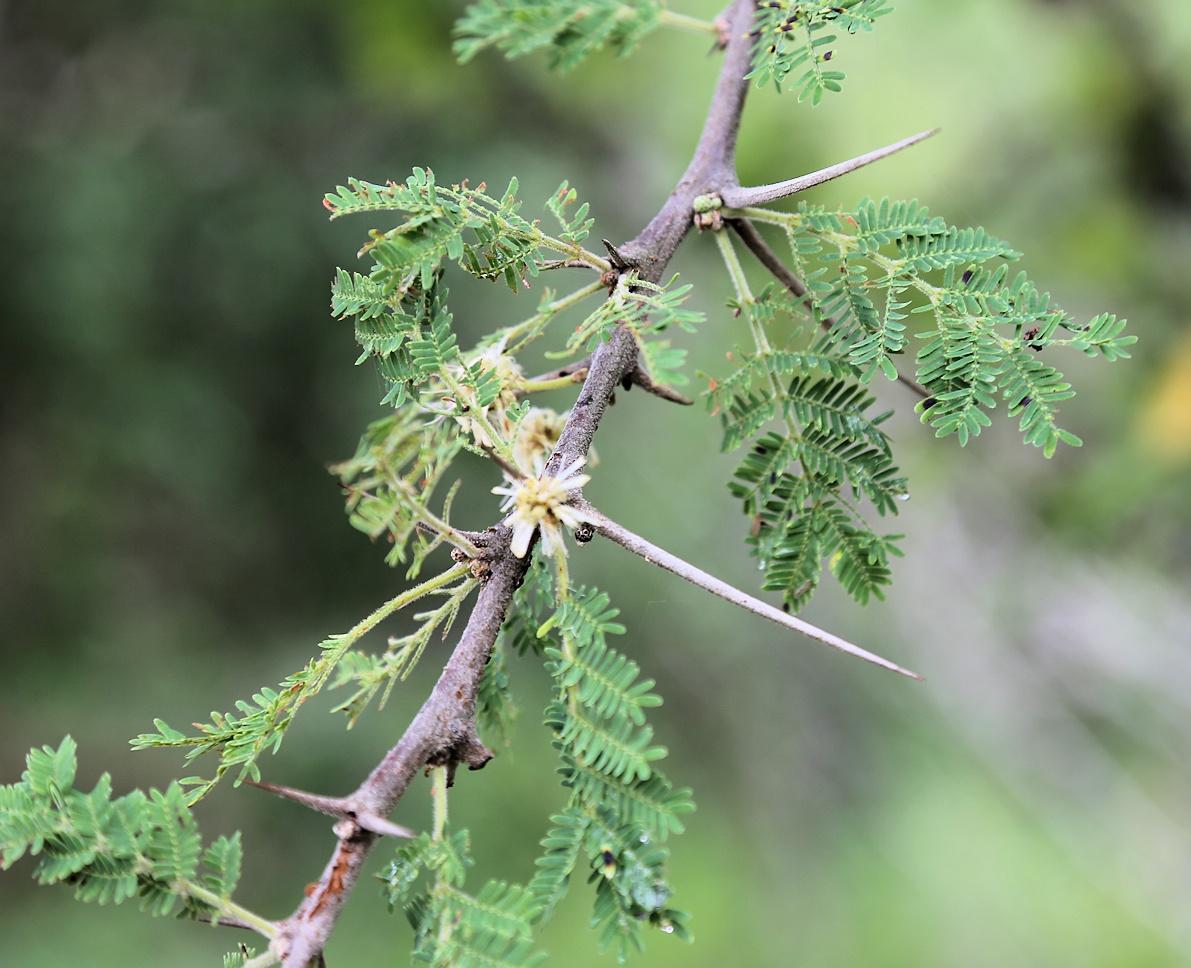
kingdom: Plantae
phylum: Tracheophyta
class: Magnoliopsida
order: Fabales
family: Fabaceae
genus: Vachellia
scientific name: Vachellia gerrardii
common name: Redthorn
